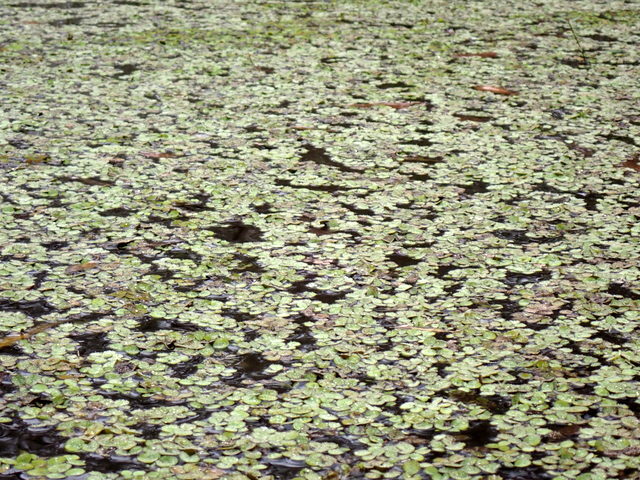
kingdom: Plantae
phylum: Tracheophyta
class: Polypodiopsida
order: Salviniales
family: Salviniaceae
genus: Salvinia
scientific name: Salvinia minima
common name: Water spangles
